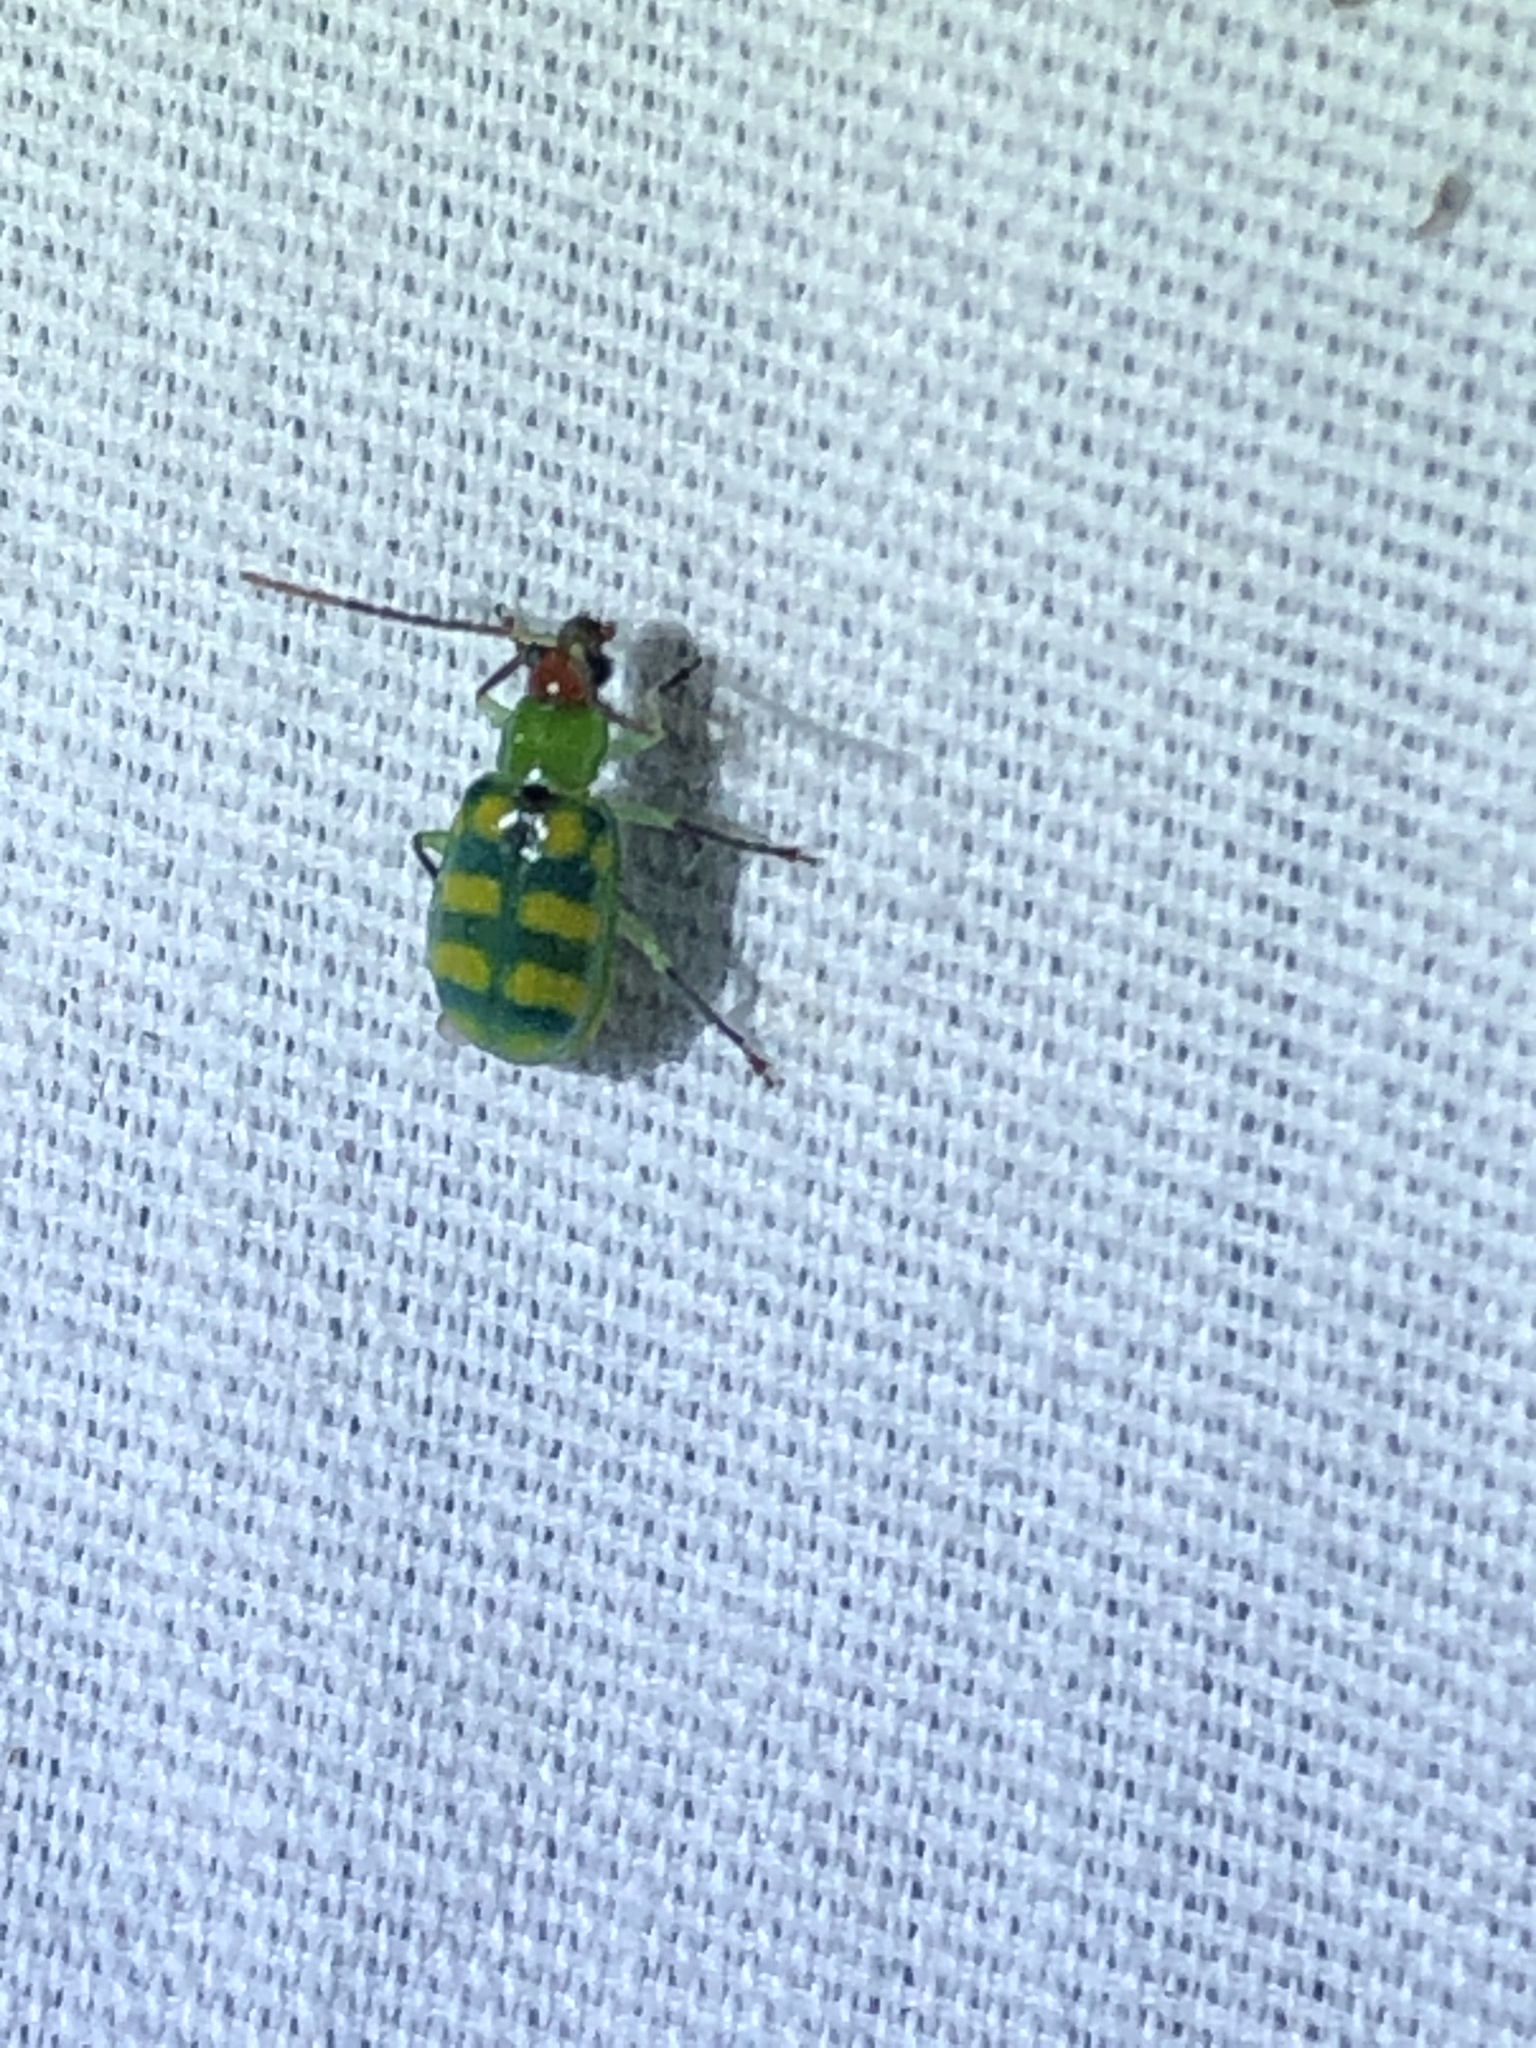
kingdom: Animalia
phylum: Arthropoda
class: Insecta
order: Coleoptera
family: Chrysomelidae
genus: Diabrotica
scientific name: Diabrotica balteata
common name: Leaf beetle
